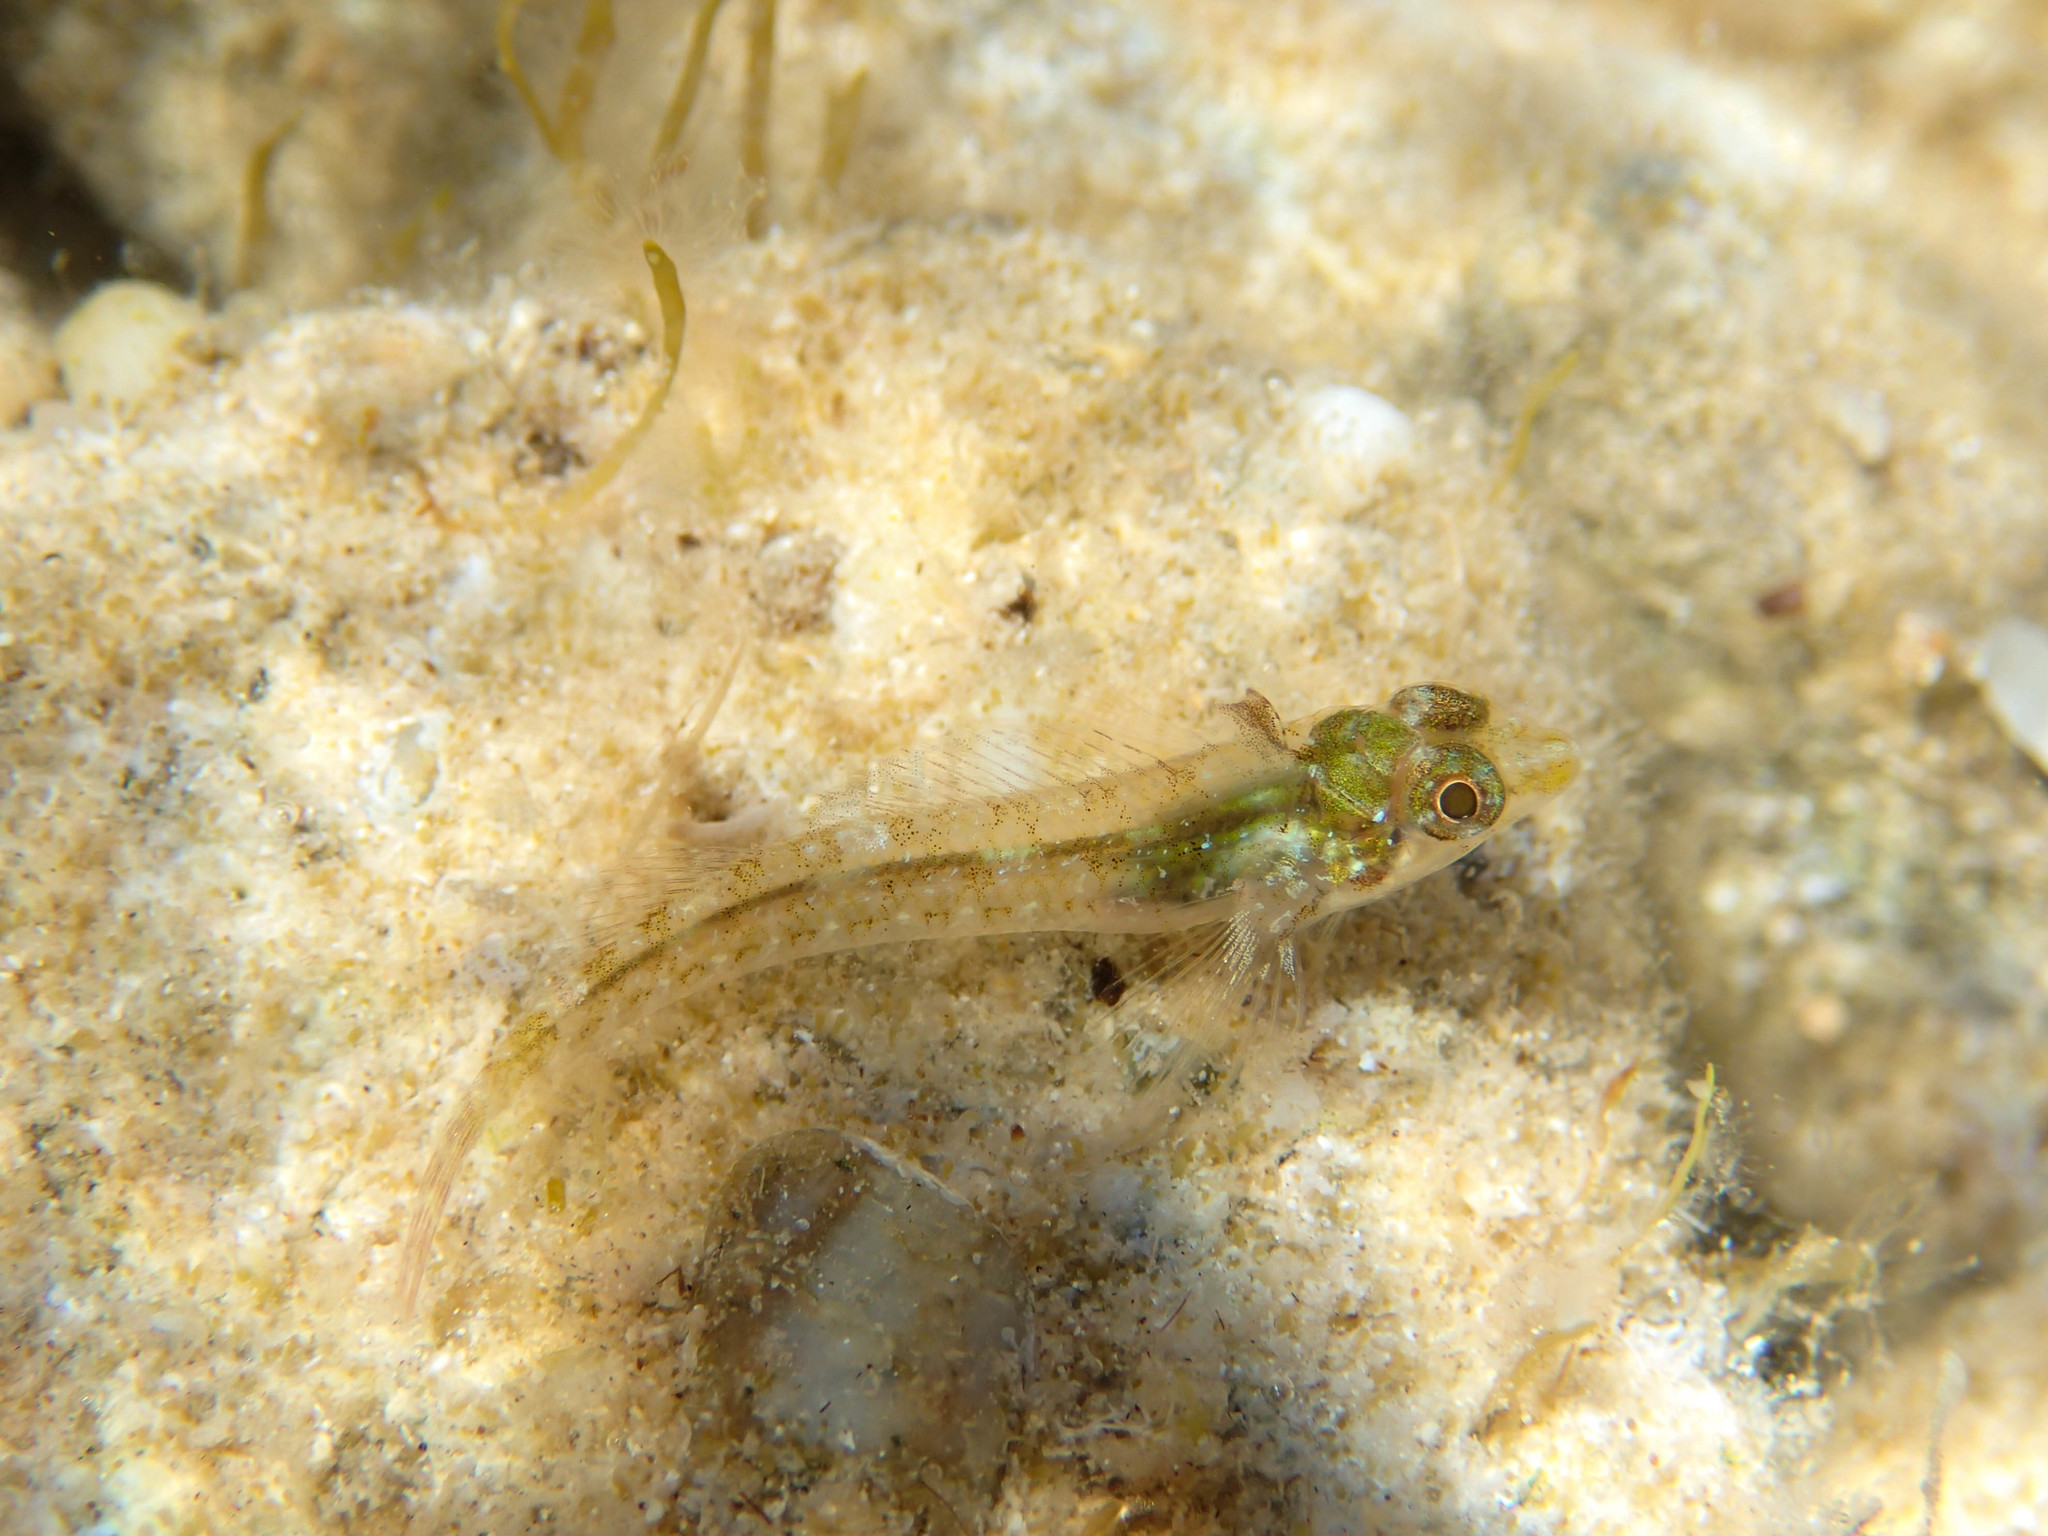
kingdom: Animalia
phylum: Chordata
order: Perciformes
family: Tripterygiidae
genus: Tripterygion
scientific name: Tripterygion tripteronotum
